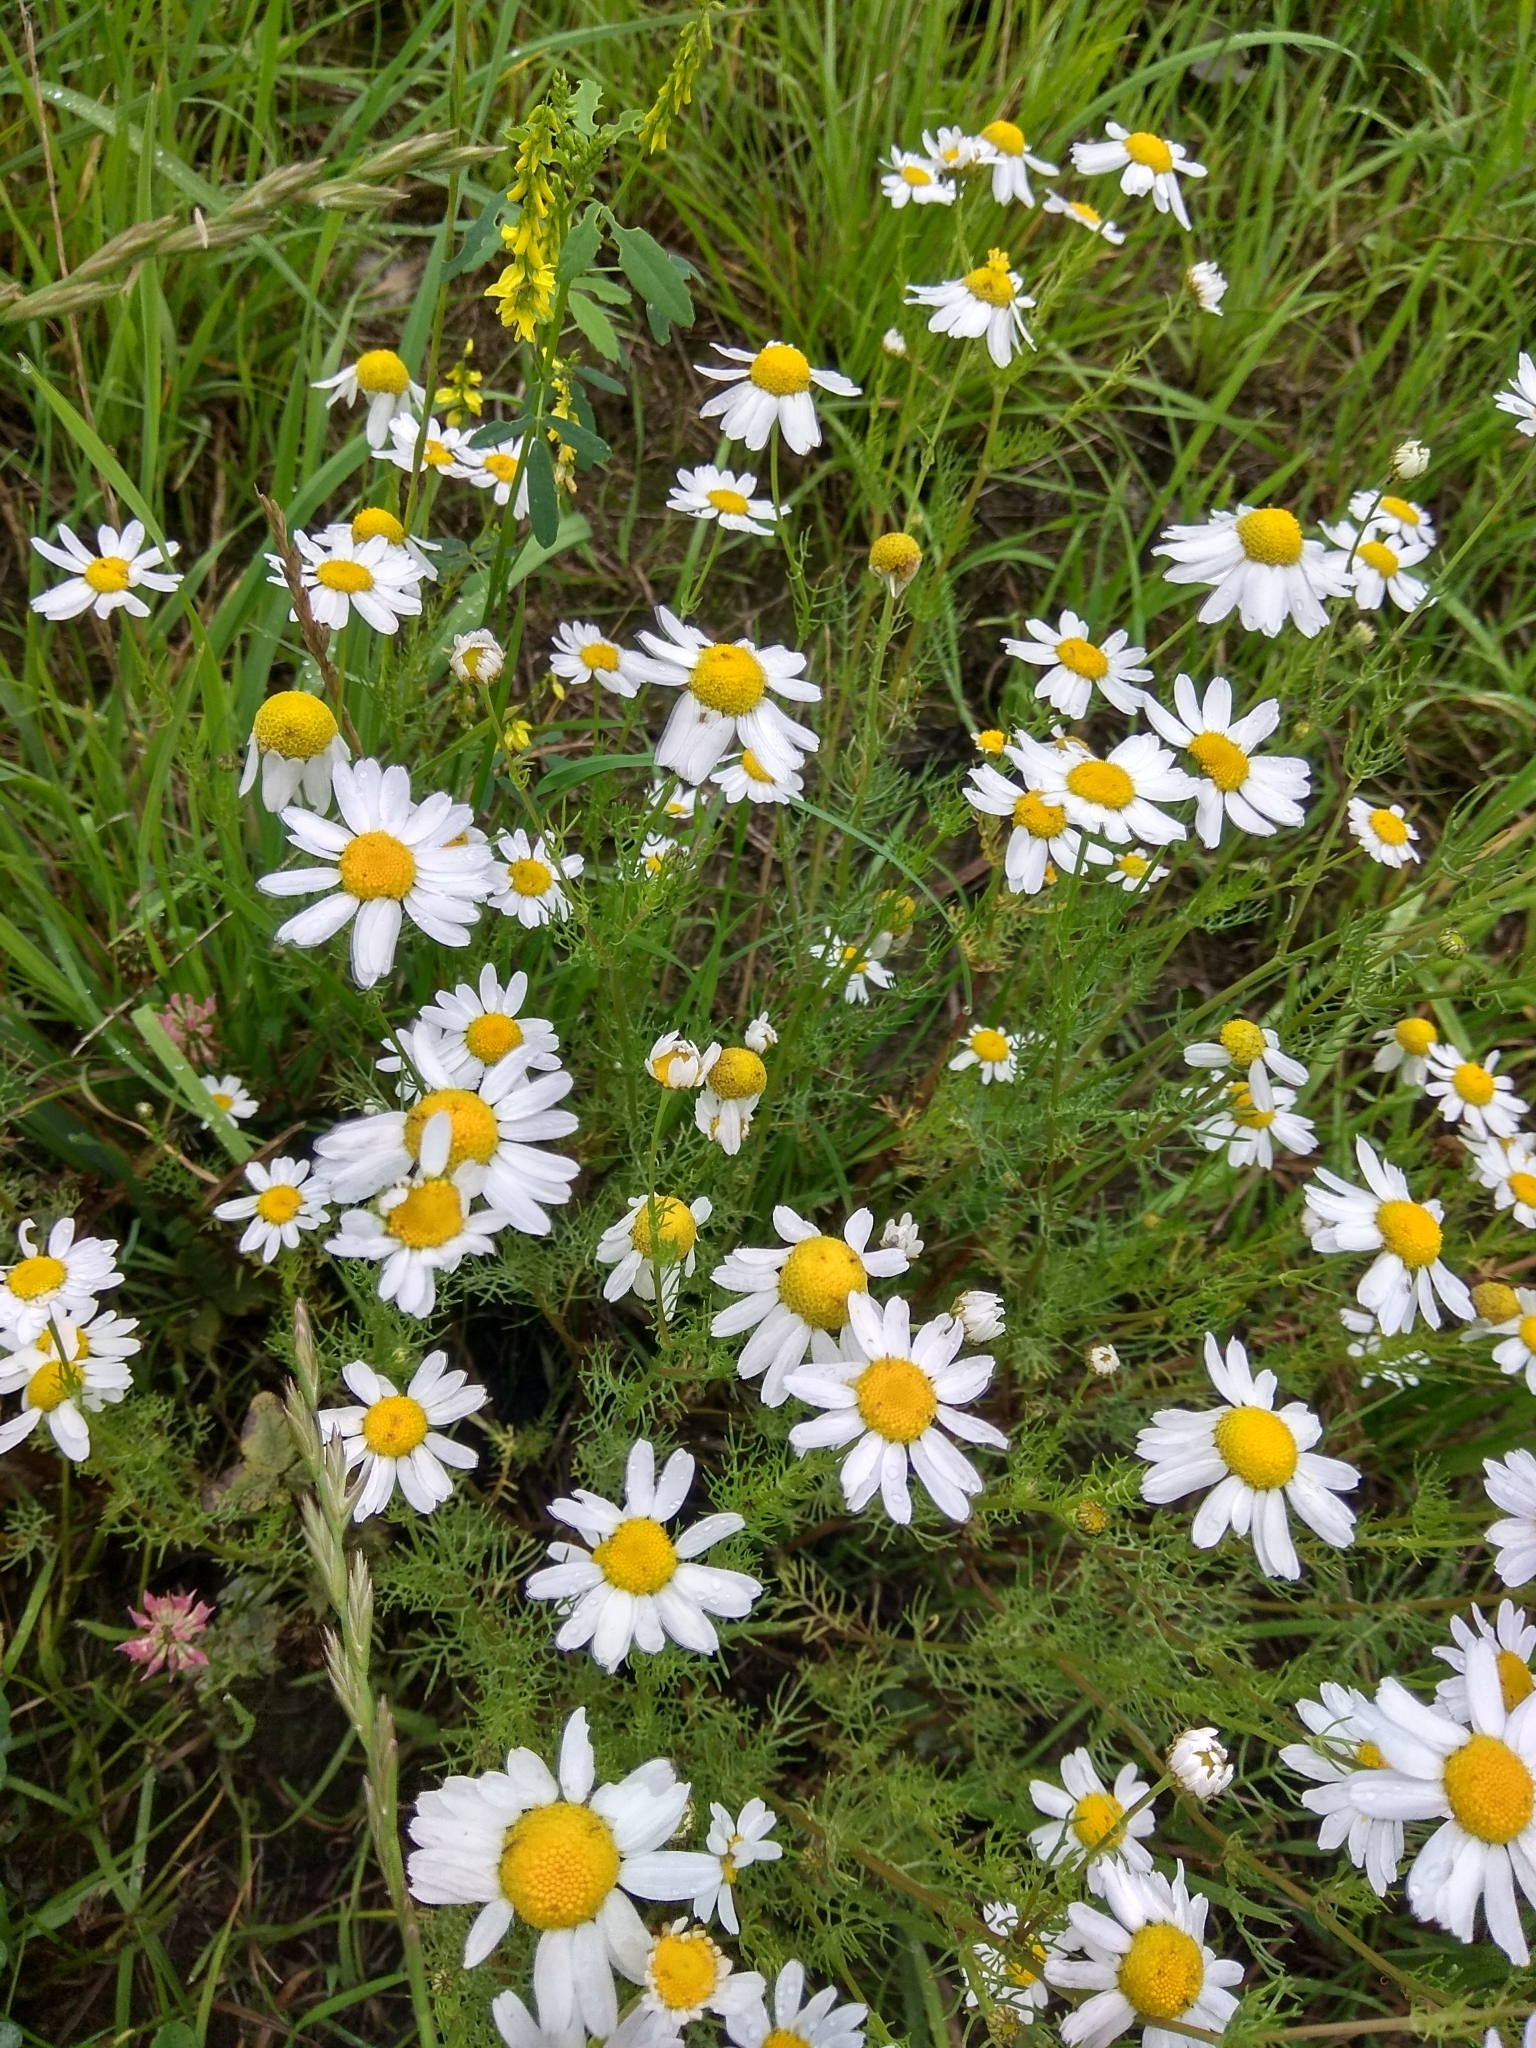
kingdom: Plantae
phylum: Tracheophyta
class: Magnoliopsida
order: Asterales
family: Asteraceae
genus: Tripleurospermum
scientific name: Tripleurospermum inodorum
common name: Scentless mayweed
